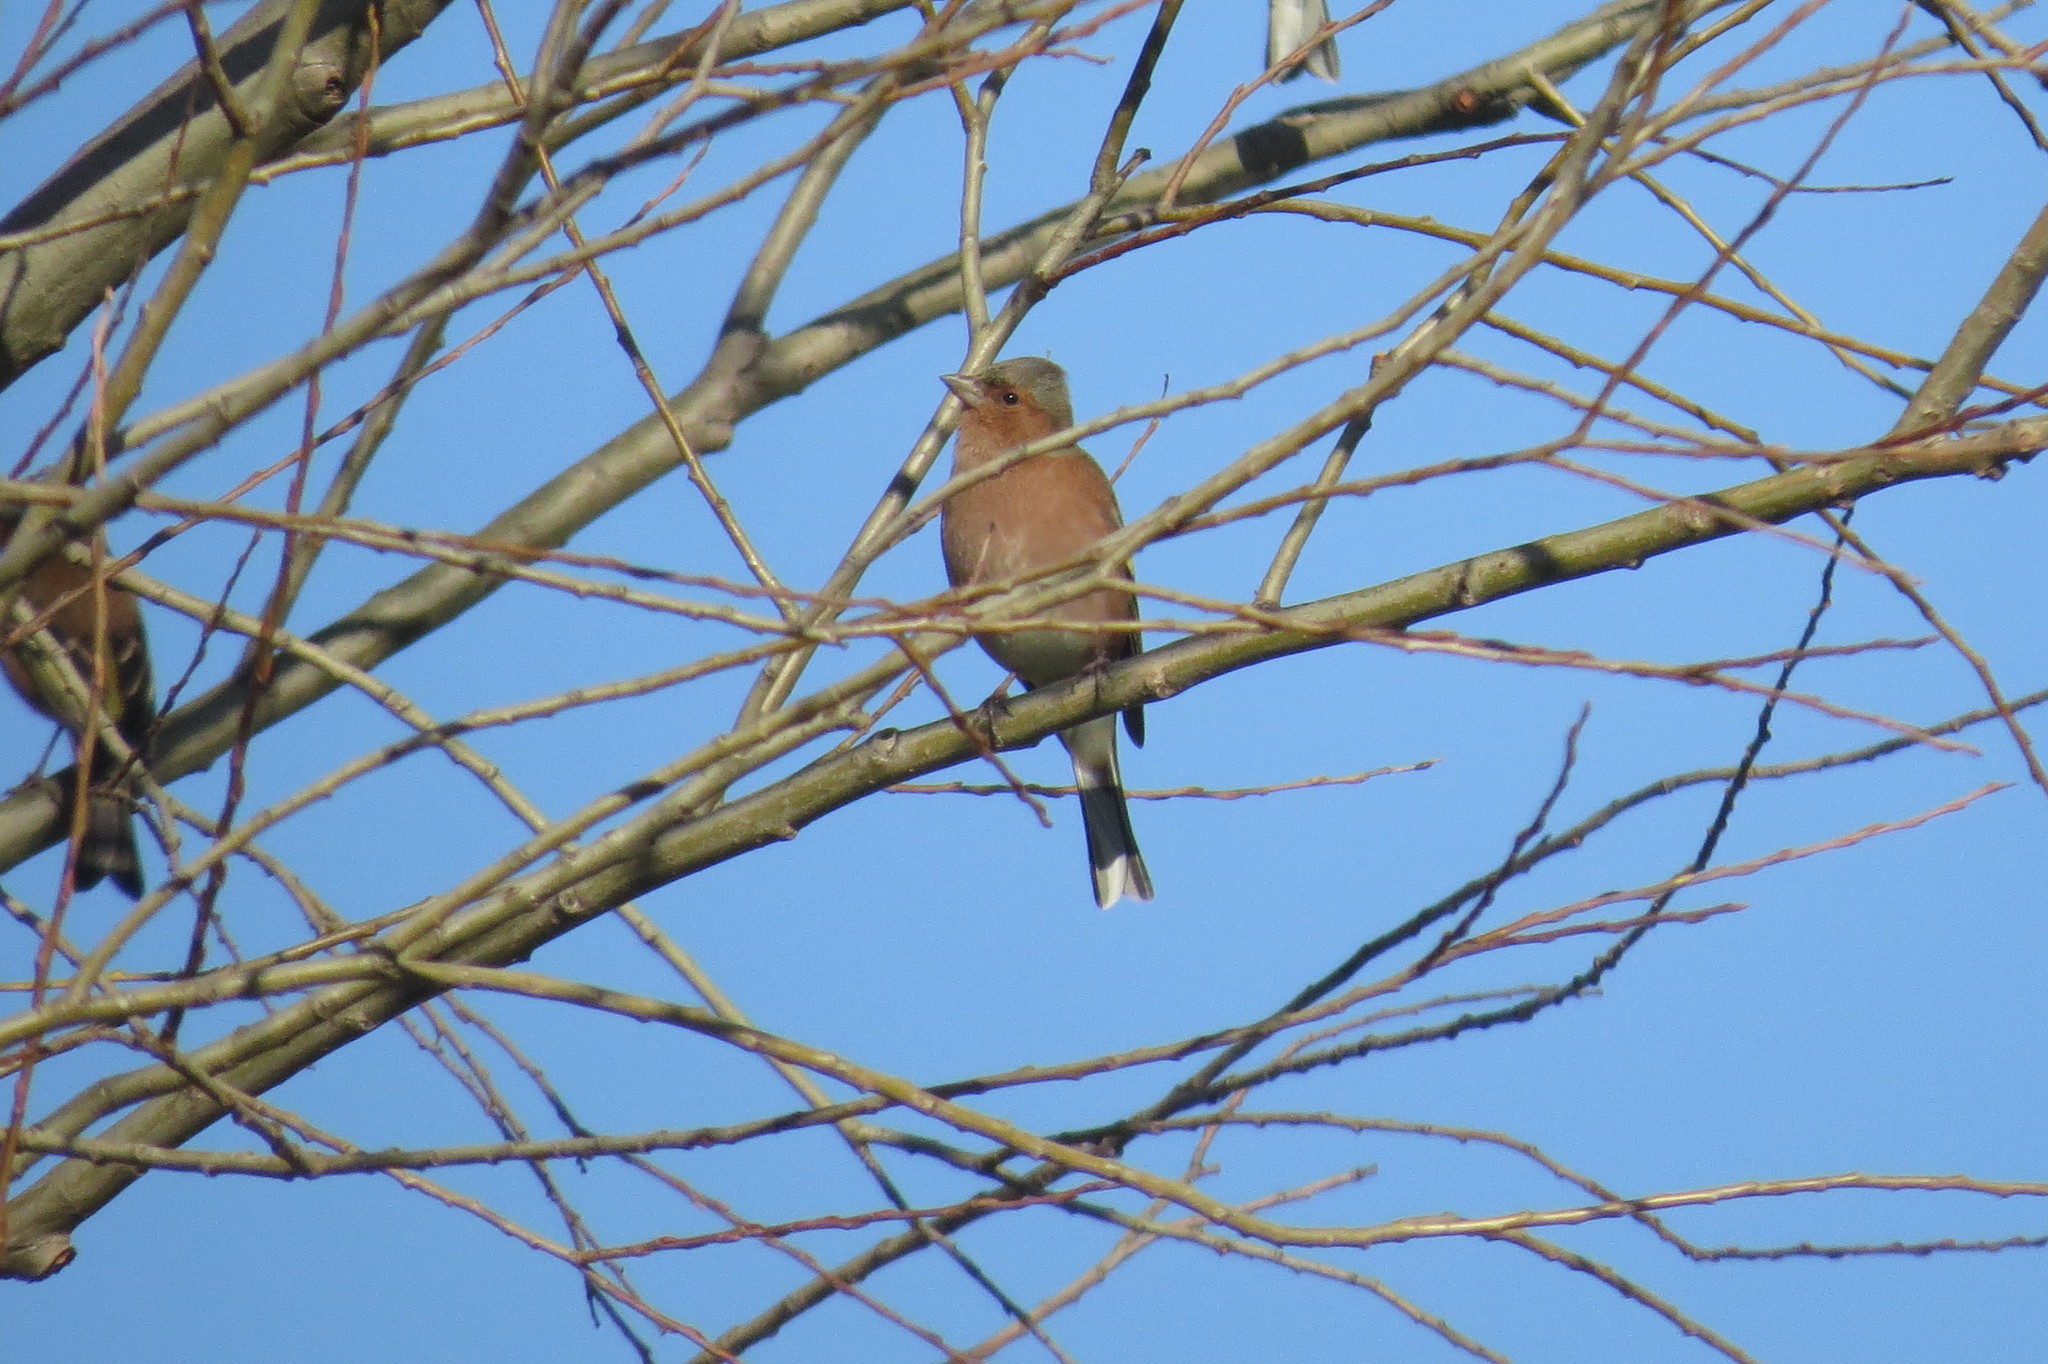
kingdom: Animalia
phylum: Chordata
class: Aves
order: Passeriformes
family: Fringillidae
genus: Fringilla
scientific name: Fringilla coelebs
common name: Common chaffinch
